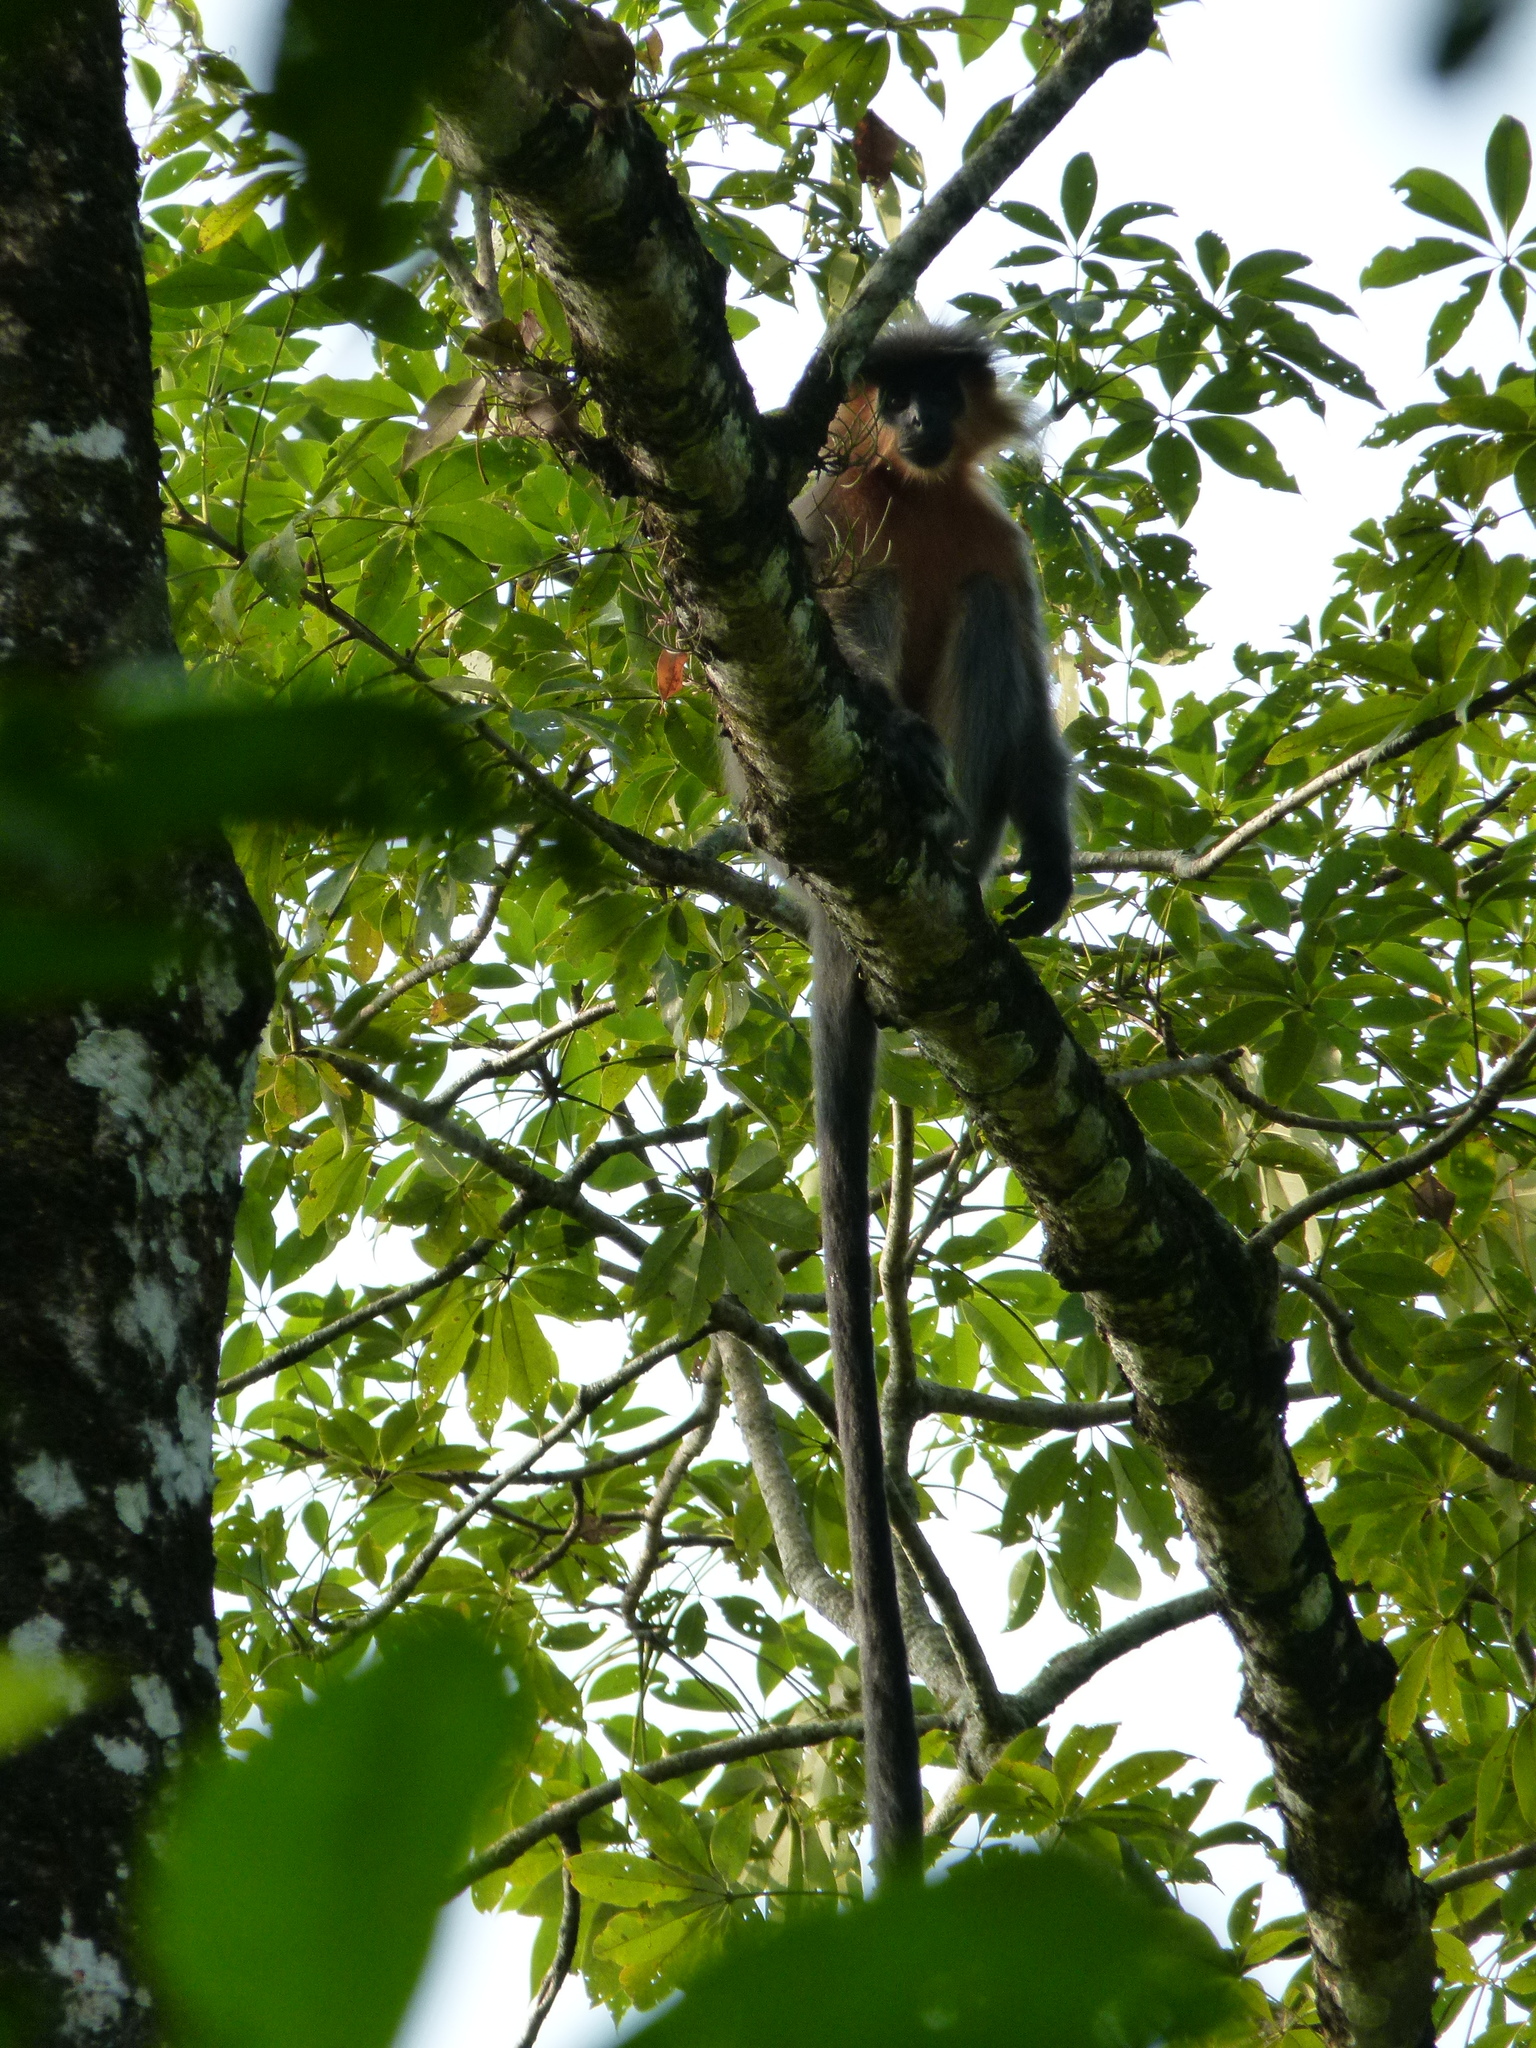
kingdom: Animalia
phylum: Chordata
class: Mammalia
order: Primates
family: Cercopithecidae
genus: Trachypithecus
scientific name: Trachypithecus pileatus
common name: Capped langur
